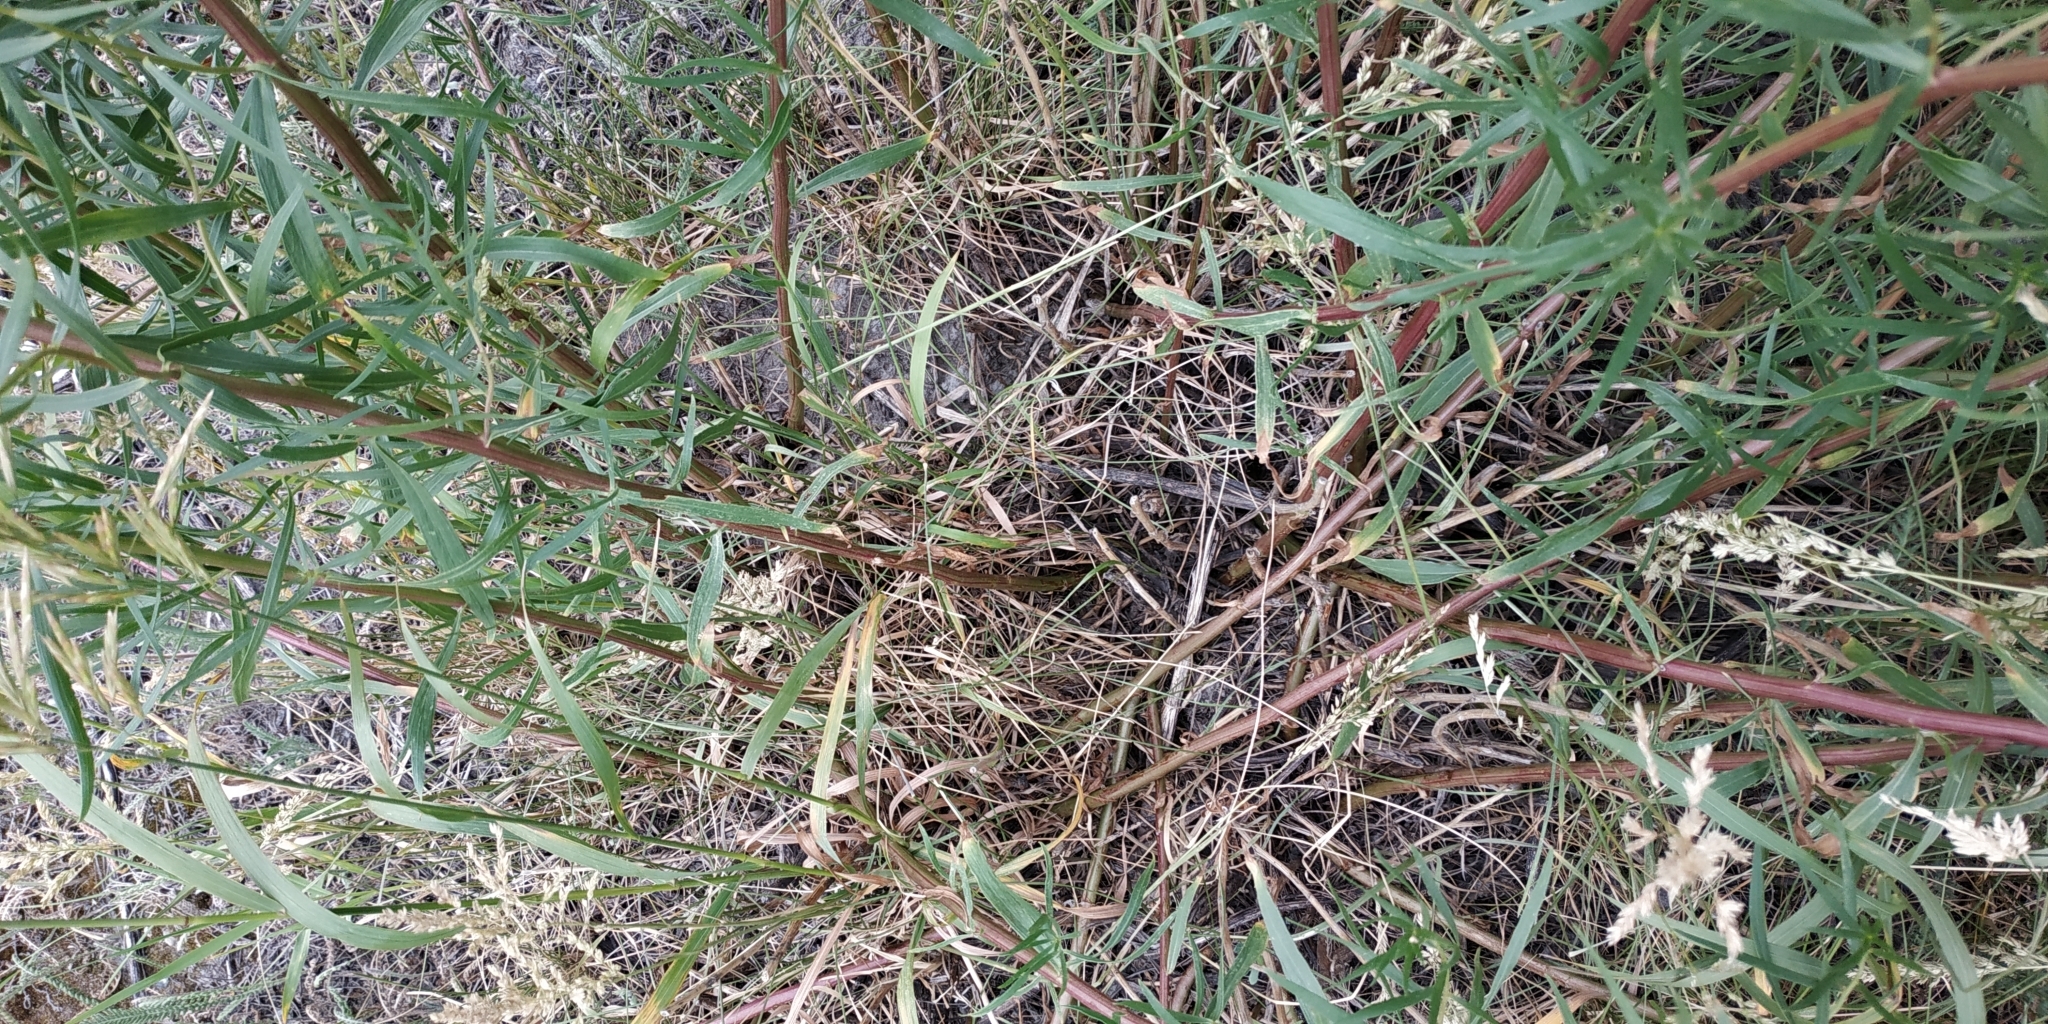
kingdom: Plantae
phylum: Tracheophyta
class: Magnoliopsida
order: Asterales
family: Asteraceae
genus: Artemisia
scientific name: Artemisia dracunculus
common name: Tarragon
